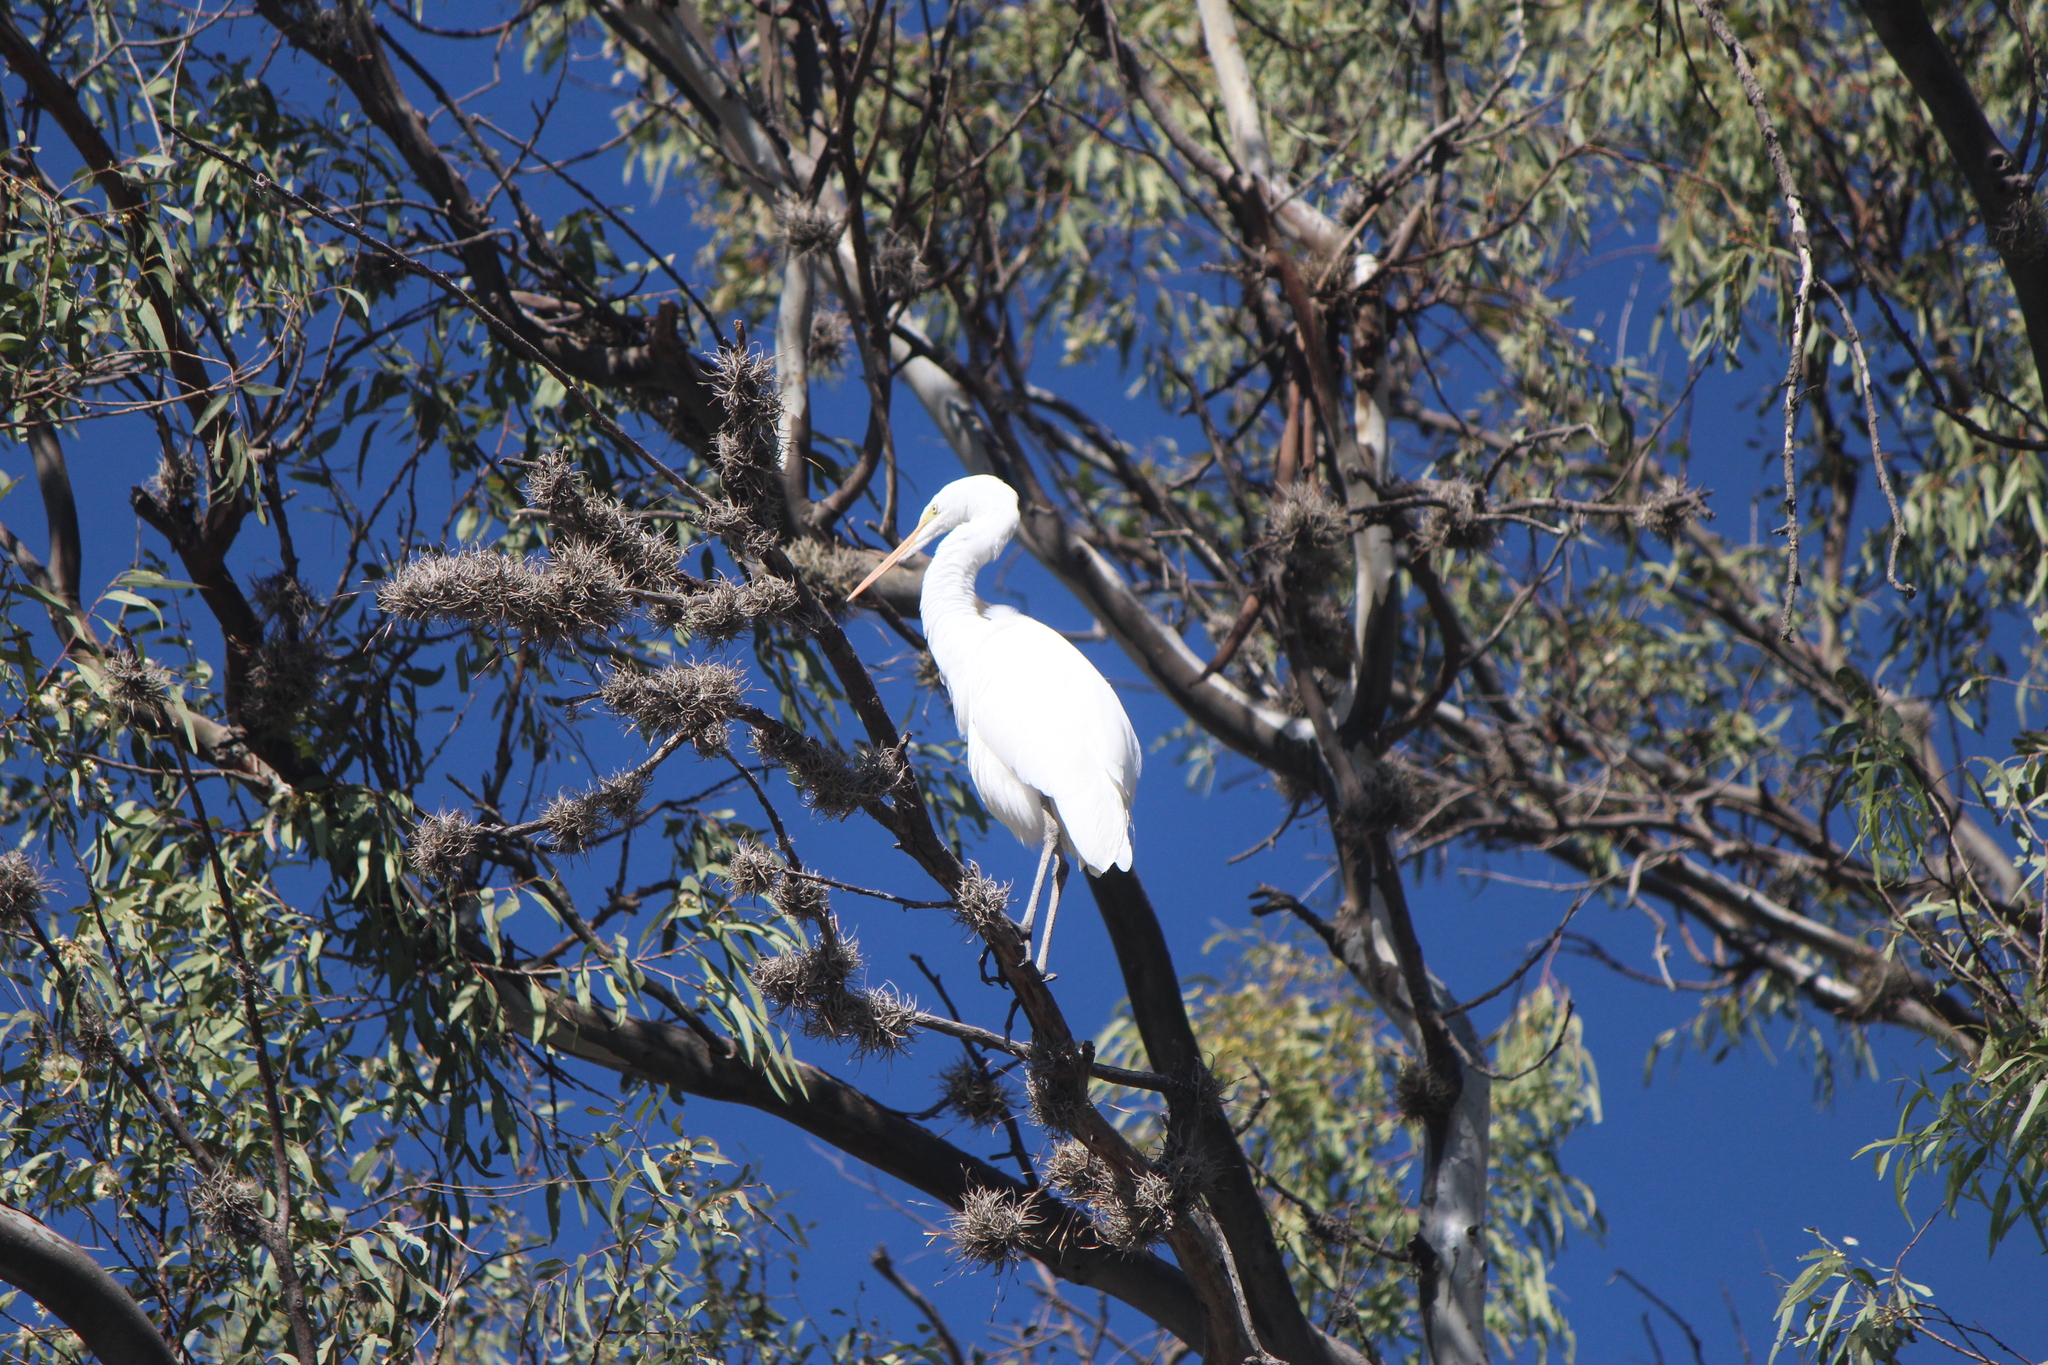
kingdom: Animalia
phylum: Chordata
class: Aves
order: Pelecaniformes
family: Ardeidae
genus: Ardea
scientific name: Ardea alba
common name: Great egret
